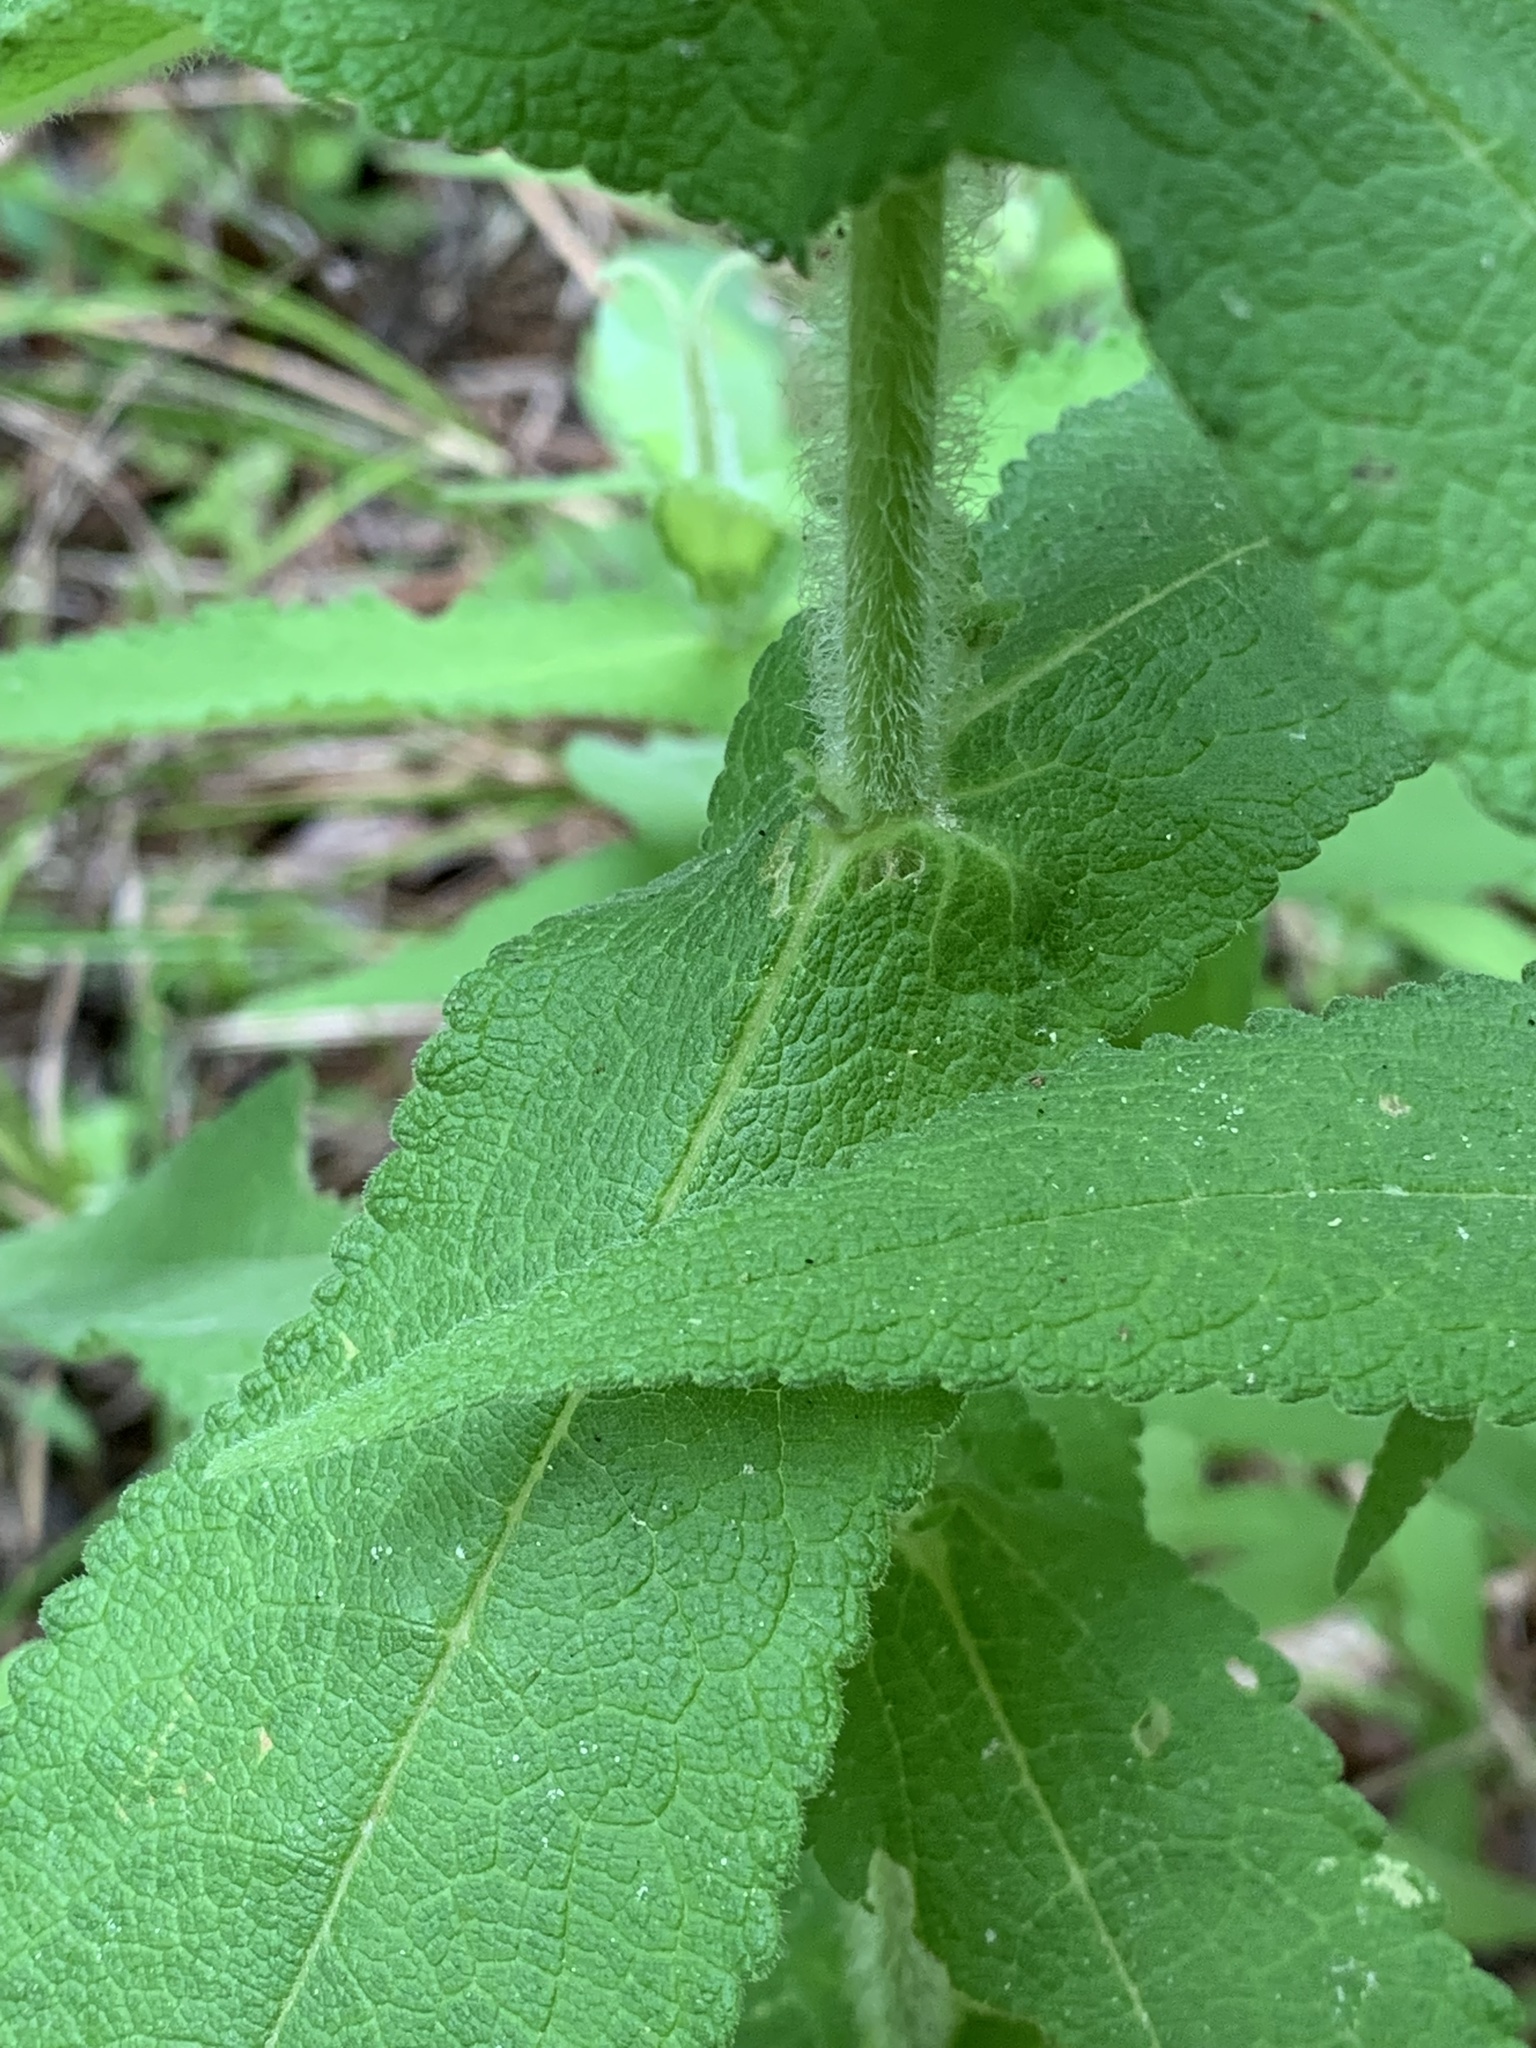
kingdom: Plantae
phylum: Tracheophyta
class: Magnoliopsida
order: Asterales
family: Asteraceae
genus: Eupatorium
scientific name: Eupatorium perfoliatum
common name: Boneset
